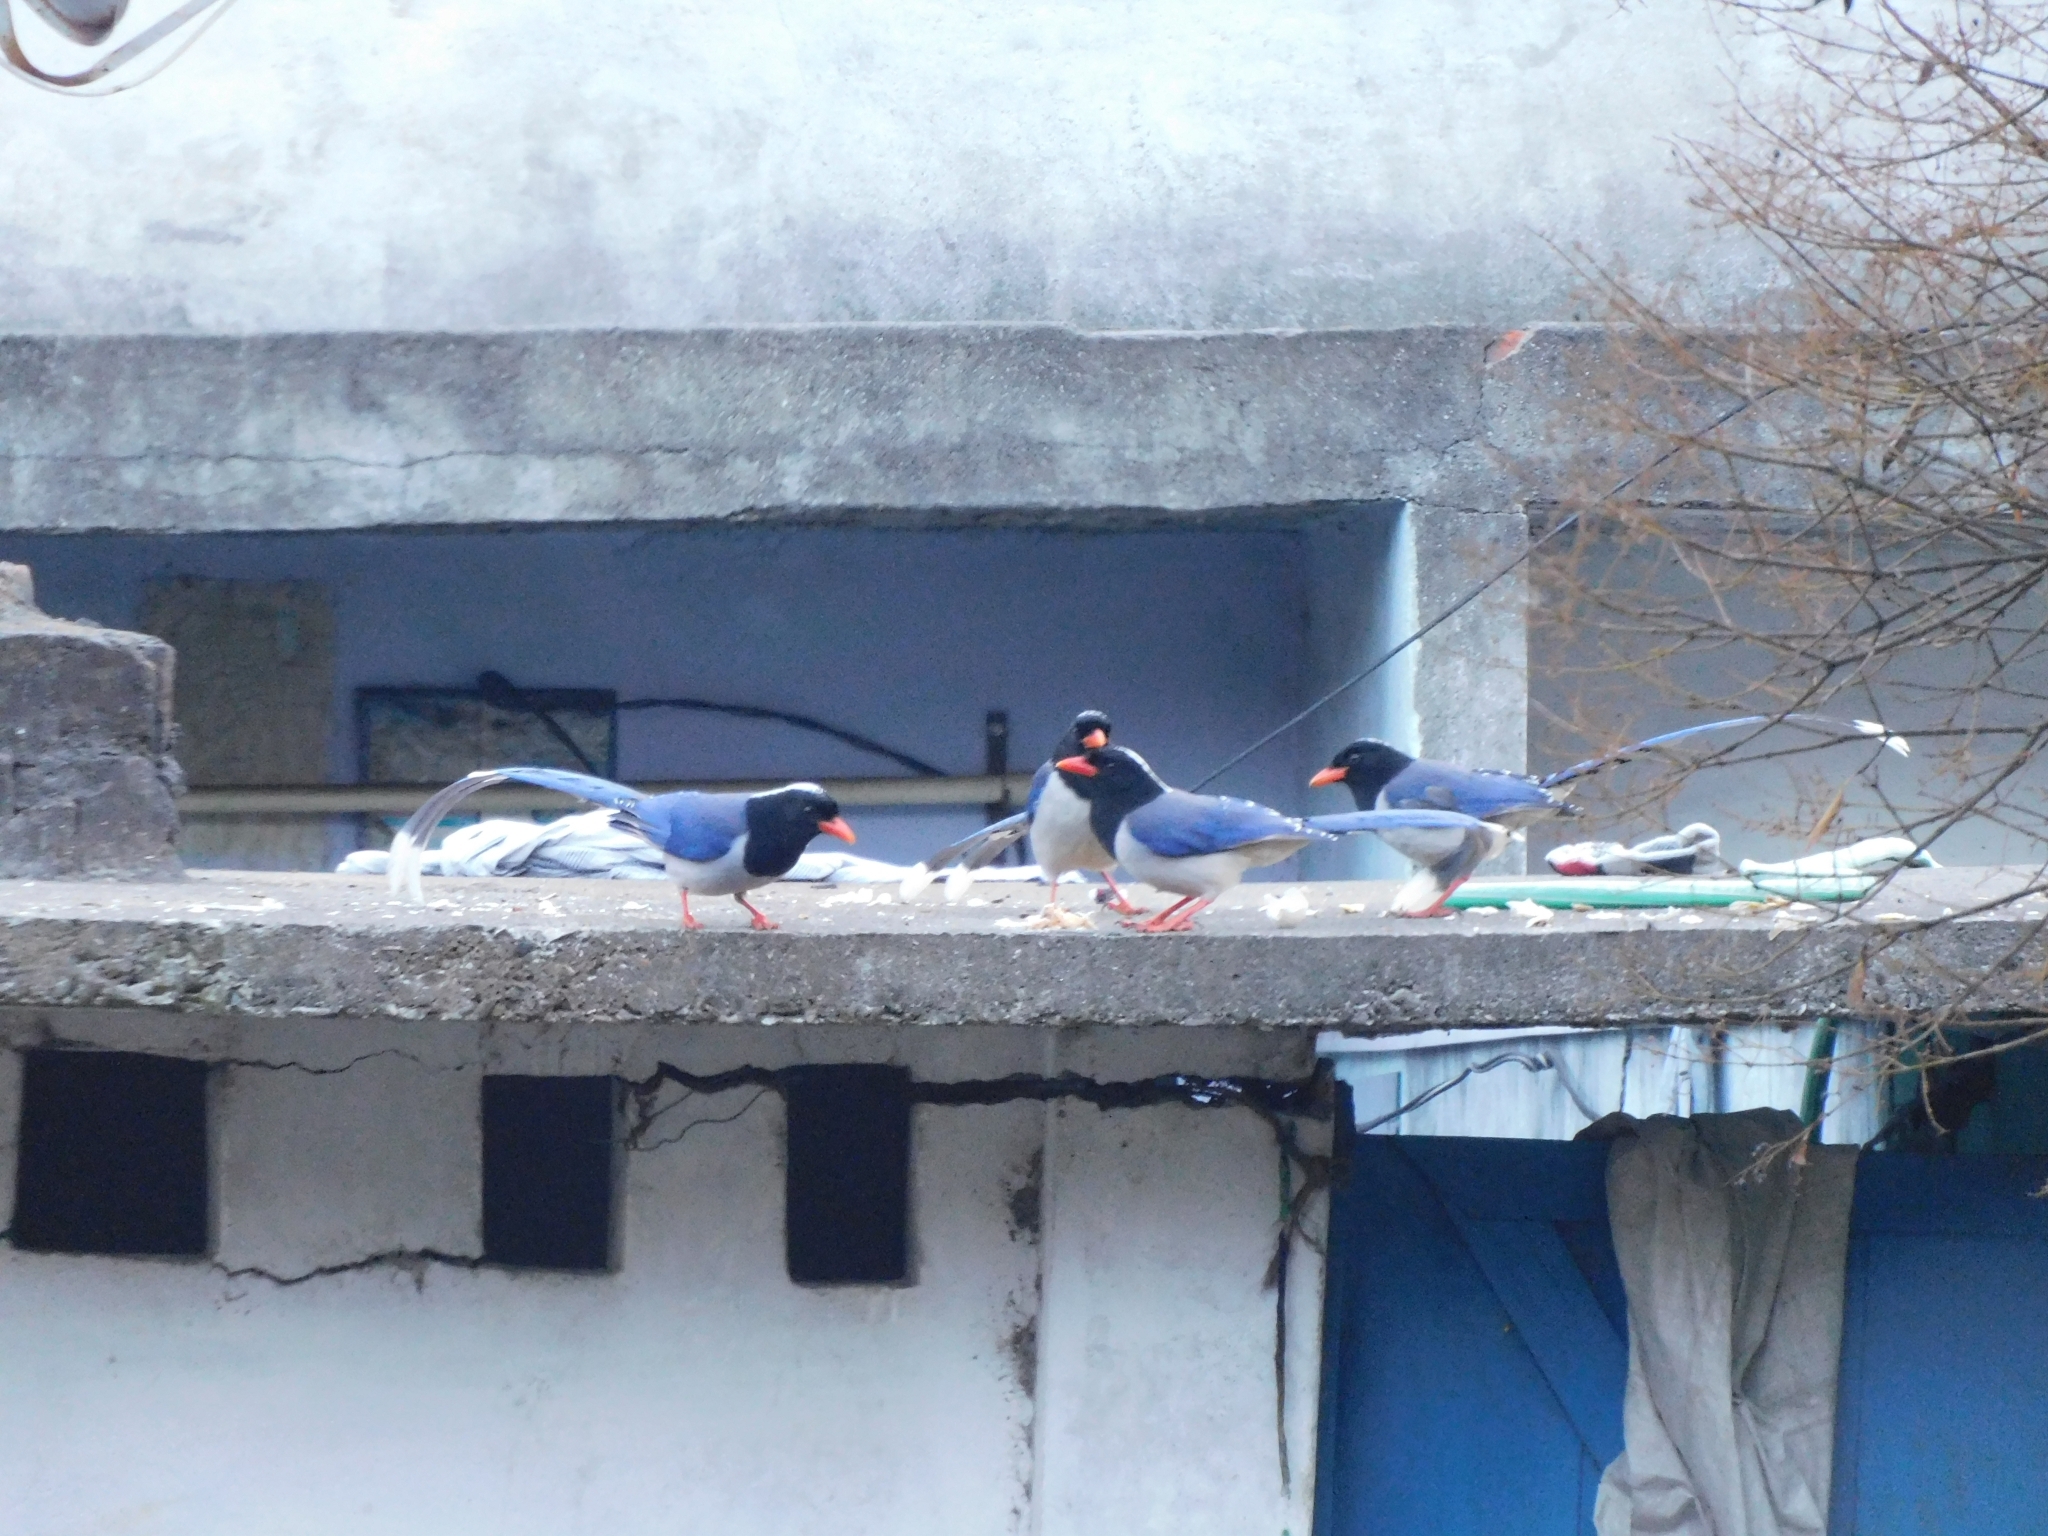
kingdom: Animalia
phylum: Chordata
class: Aves
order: Passeriformes
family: Corvidae
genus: Urocissa
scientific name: Urocissa erythroryncha
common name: Red-billed blue magpie
